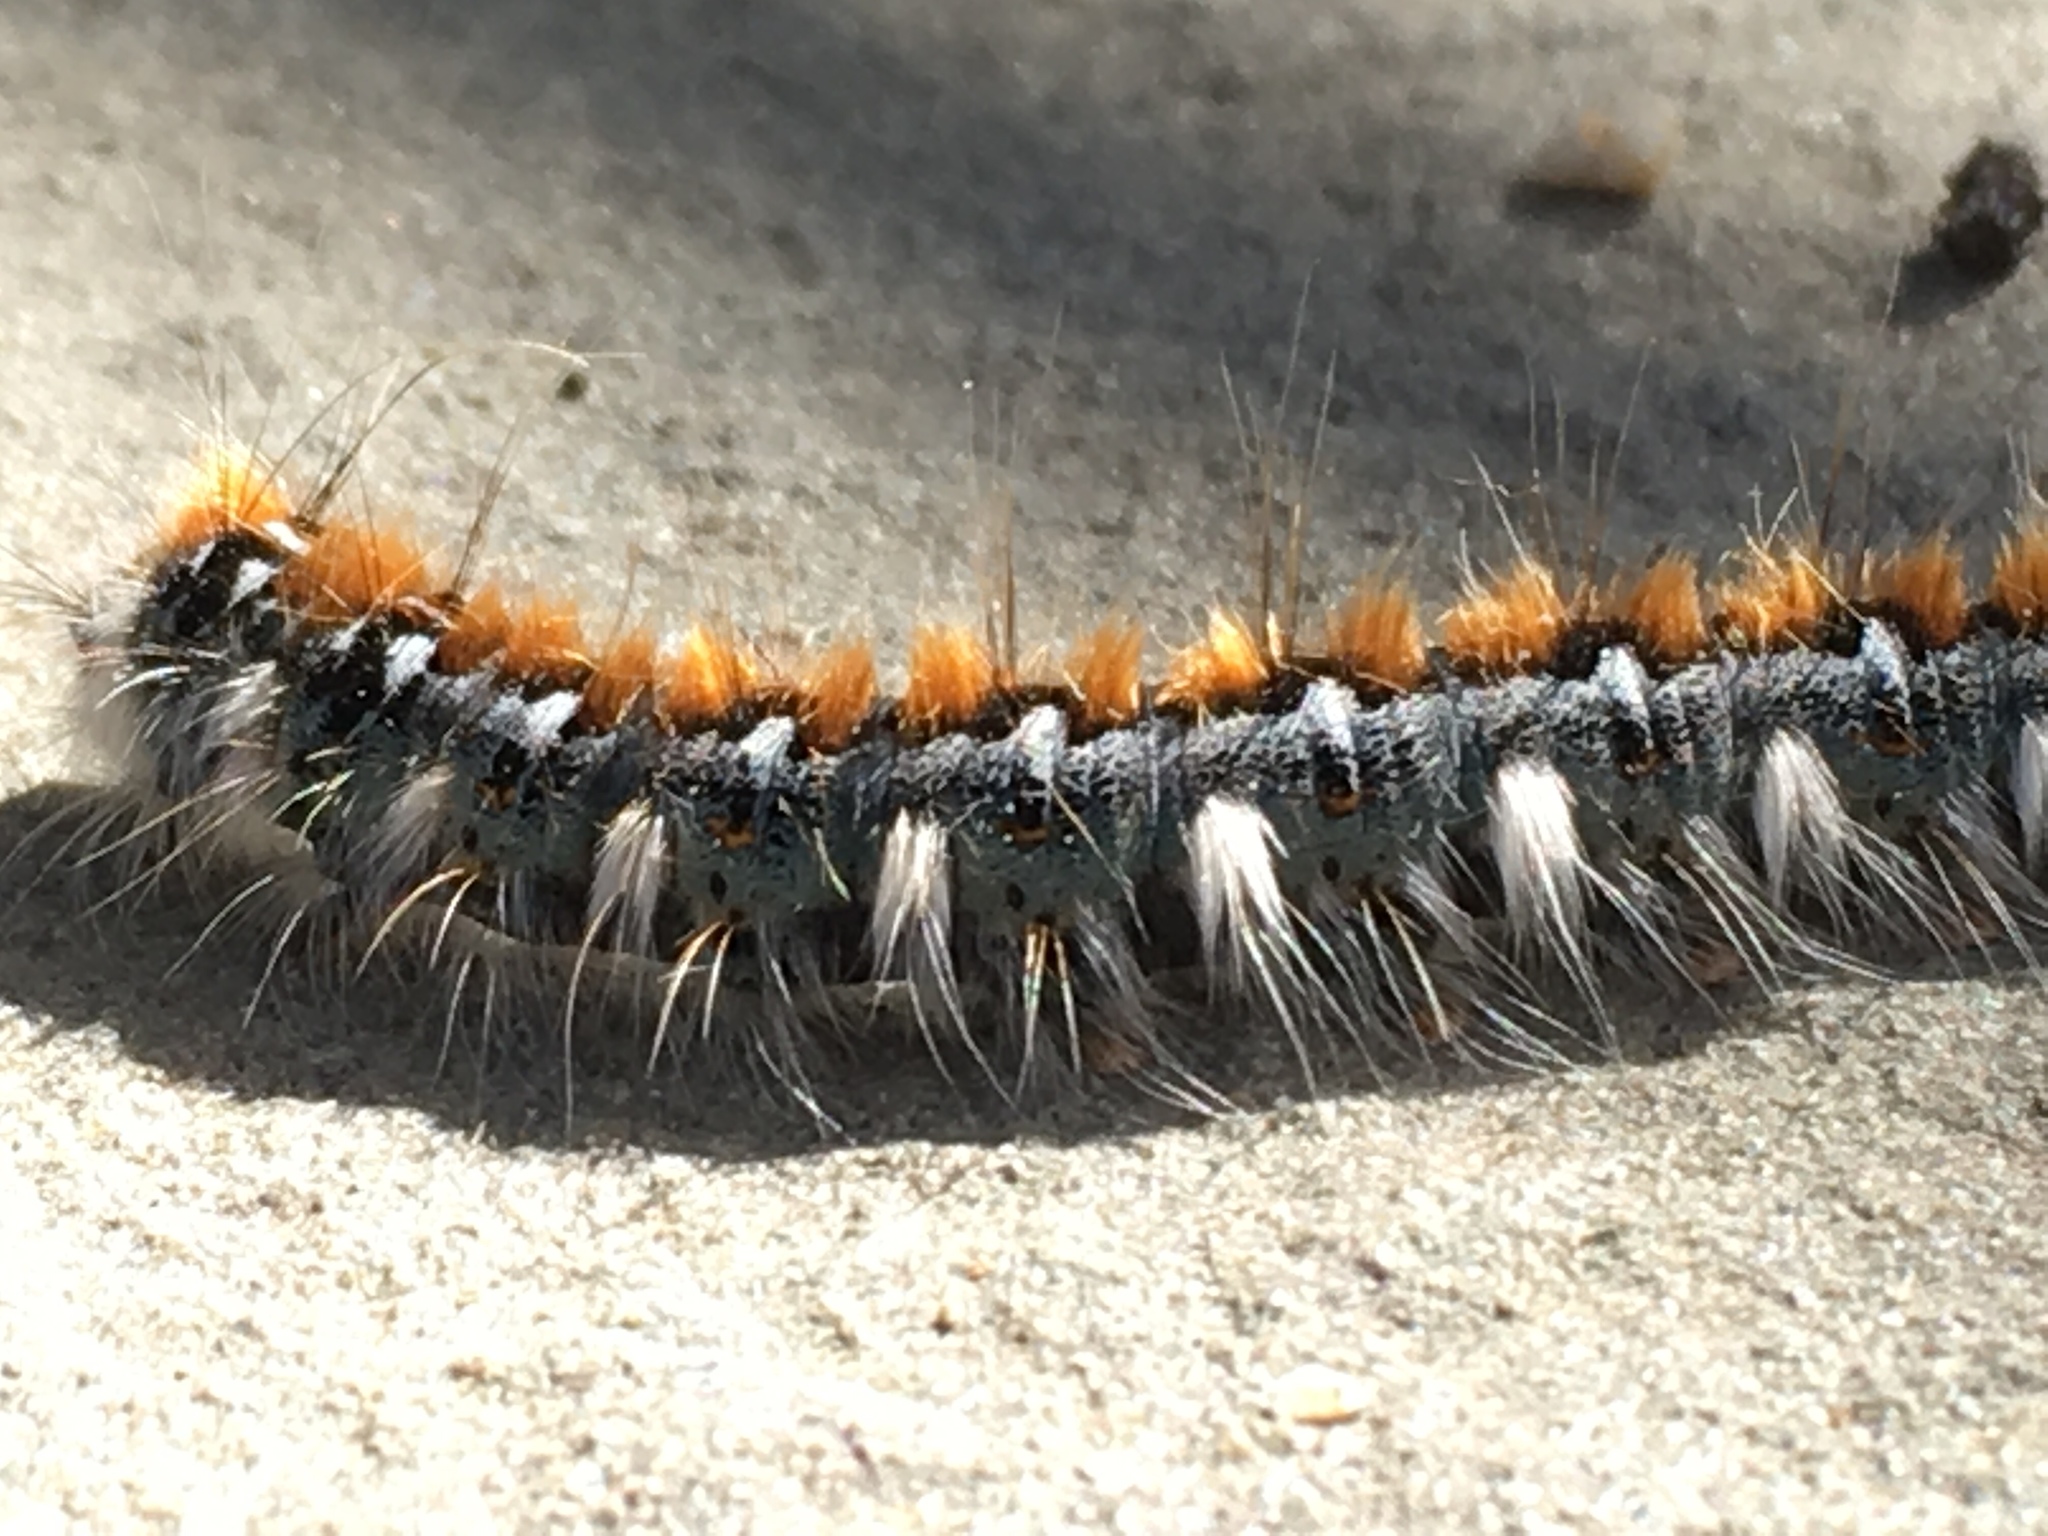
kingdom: Animalia
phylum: Arthropoda
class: Insecta
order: Lepidoptera
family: Lasiocampidae
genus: Malacosoma
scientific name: Malacosoma constricta
